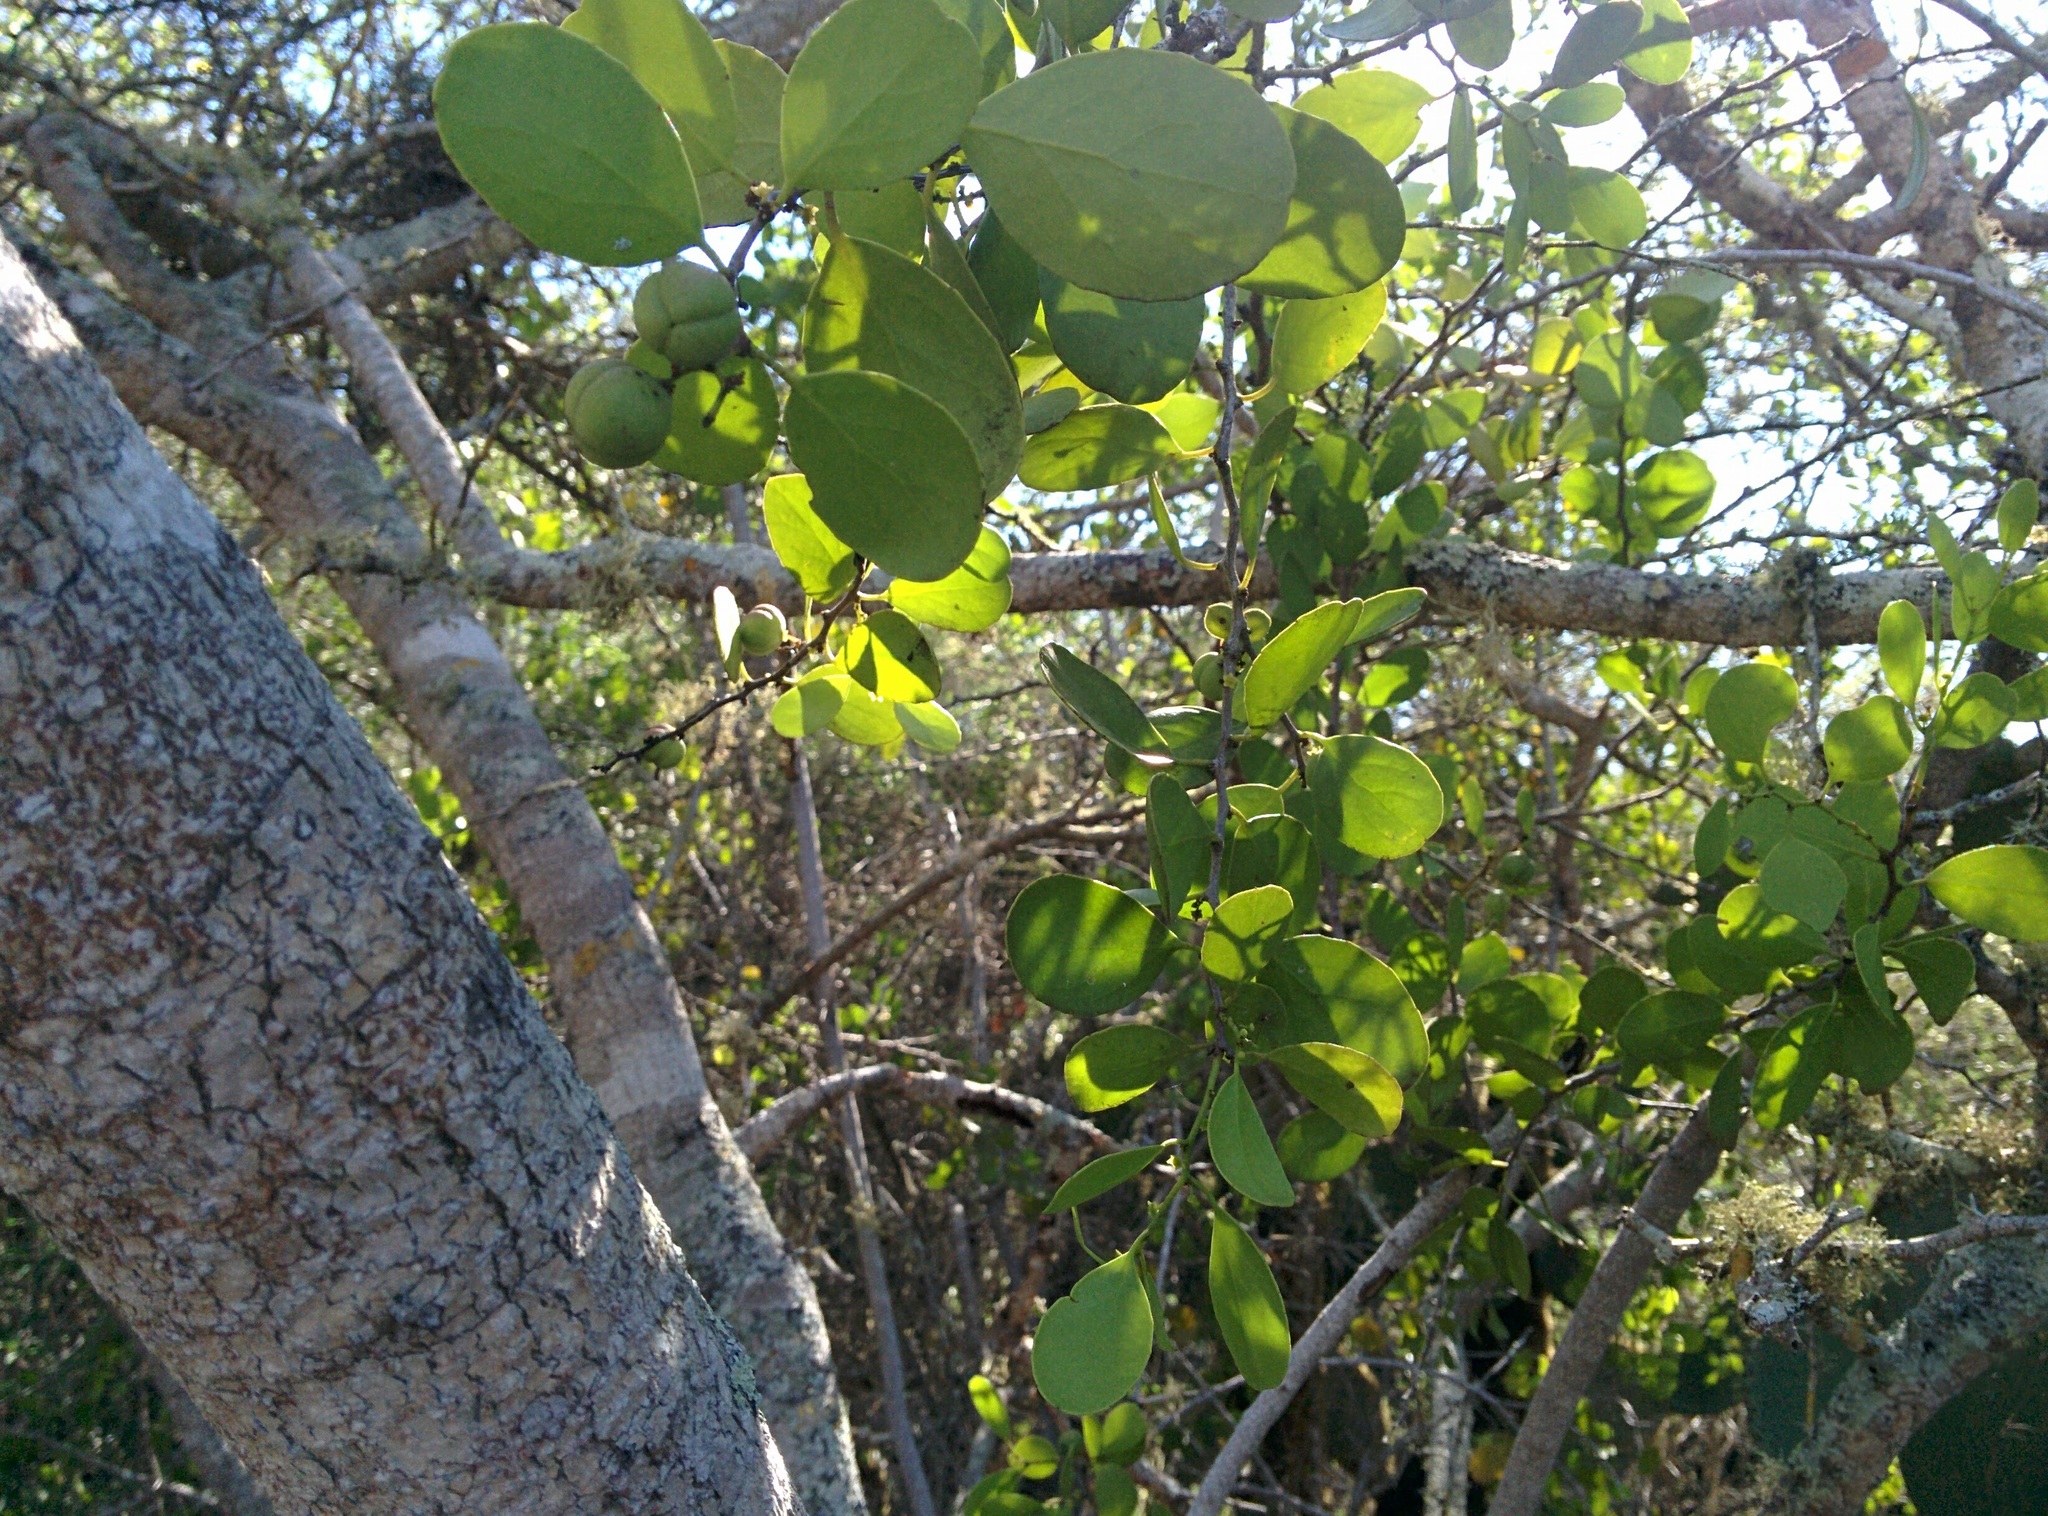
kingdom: Plantae
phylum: Tracheophyta
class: Magnoliopsida
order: Celastrales
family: Celastraceae
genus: Tricerma
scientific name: Tricerma octogonum
